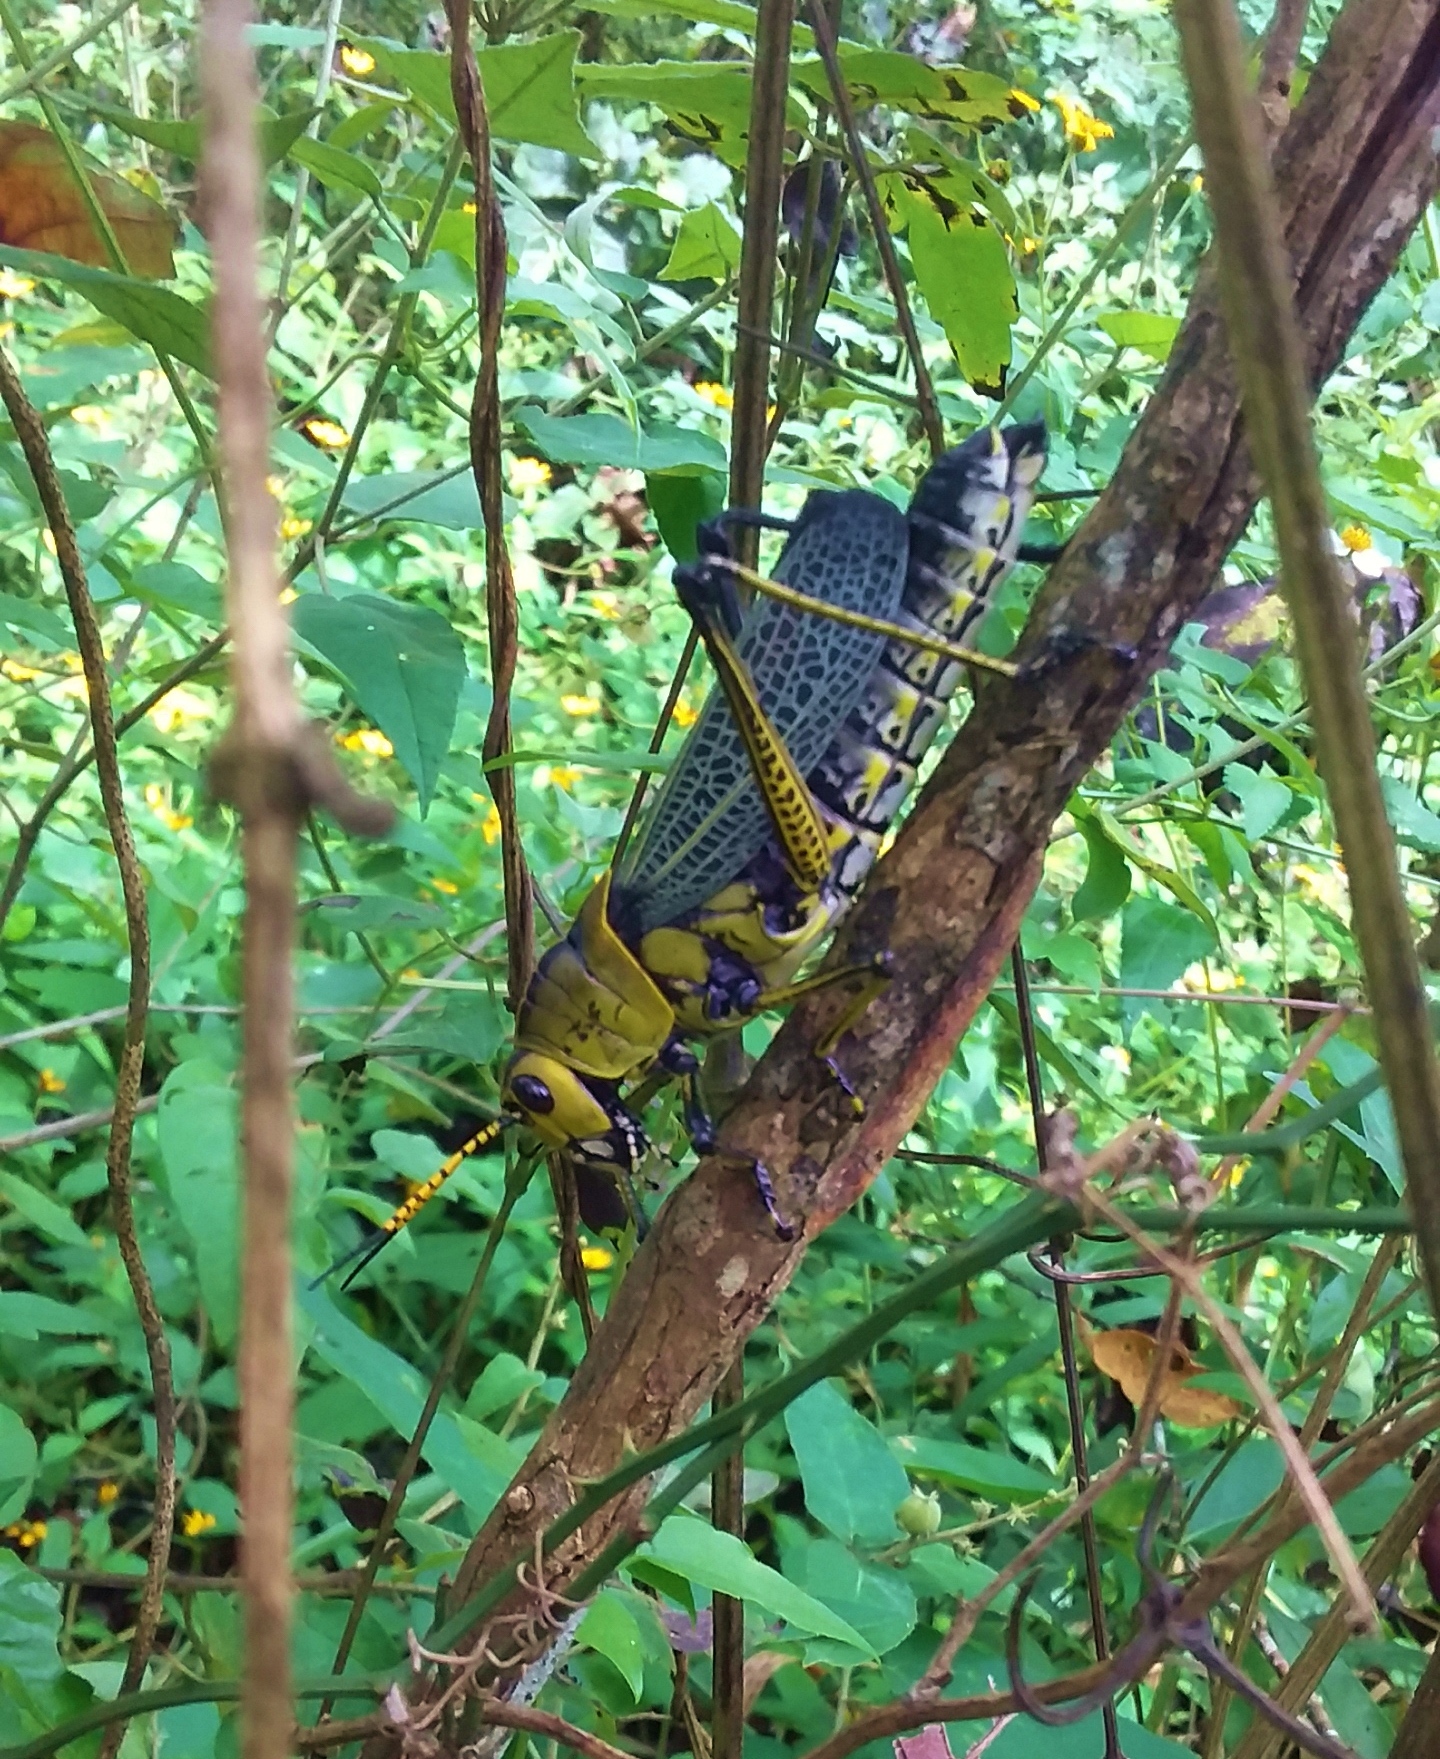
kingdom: Animalia
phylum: Arthropoda
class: Insecta
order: Orthoptera
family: Romaleidae
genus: Romalea
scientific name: Romalea
